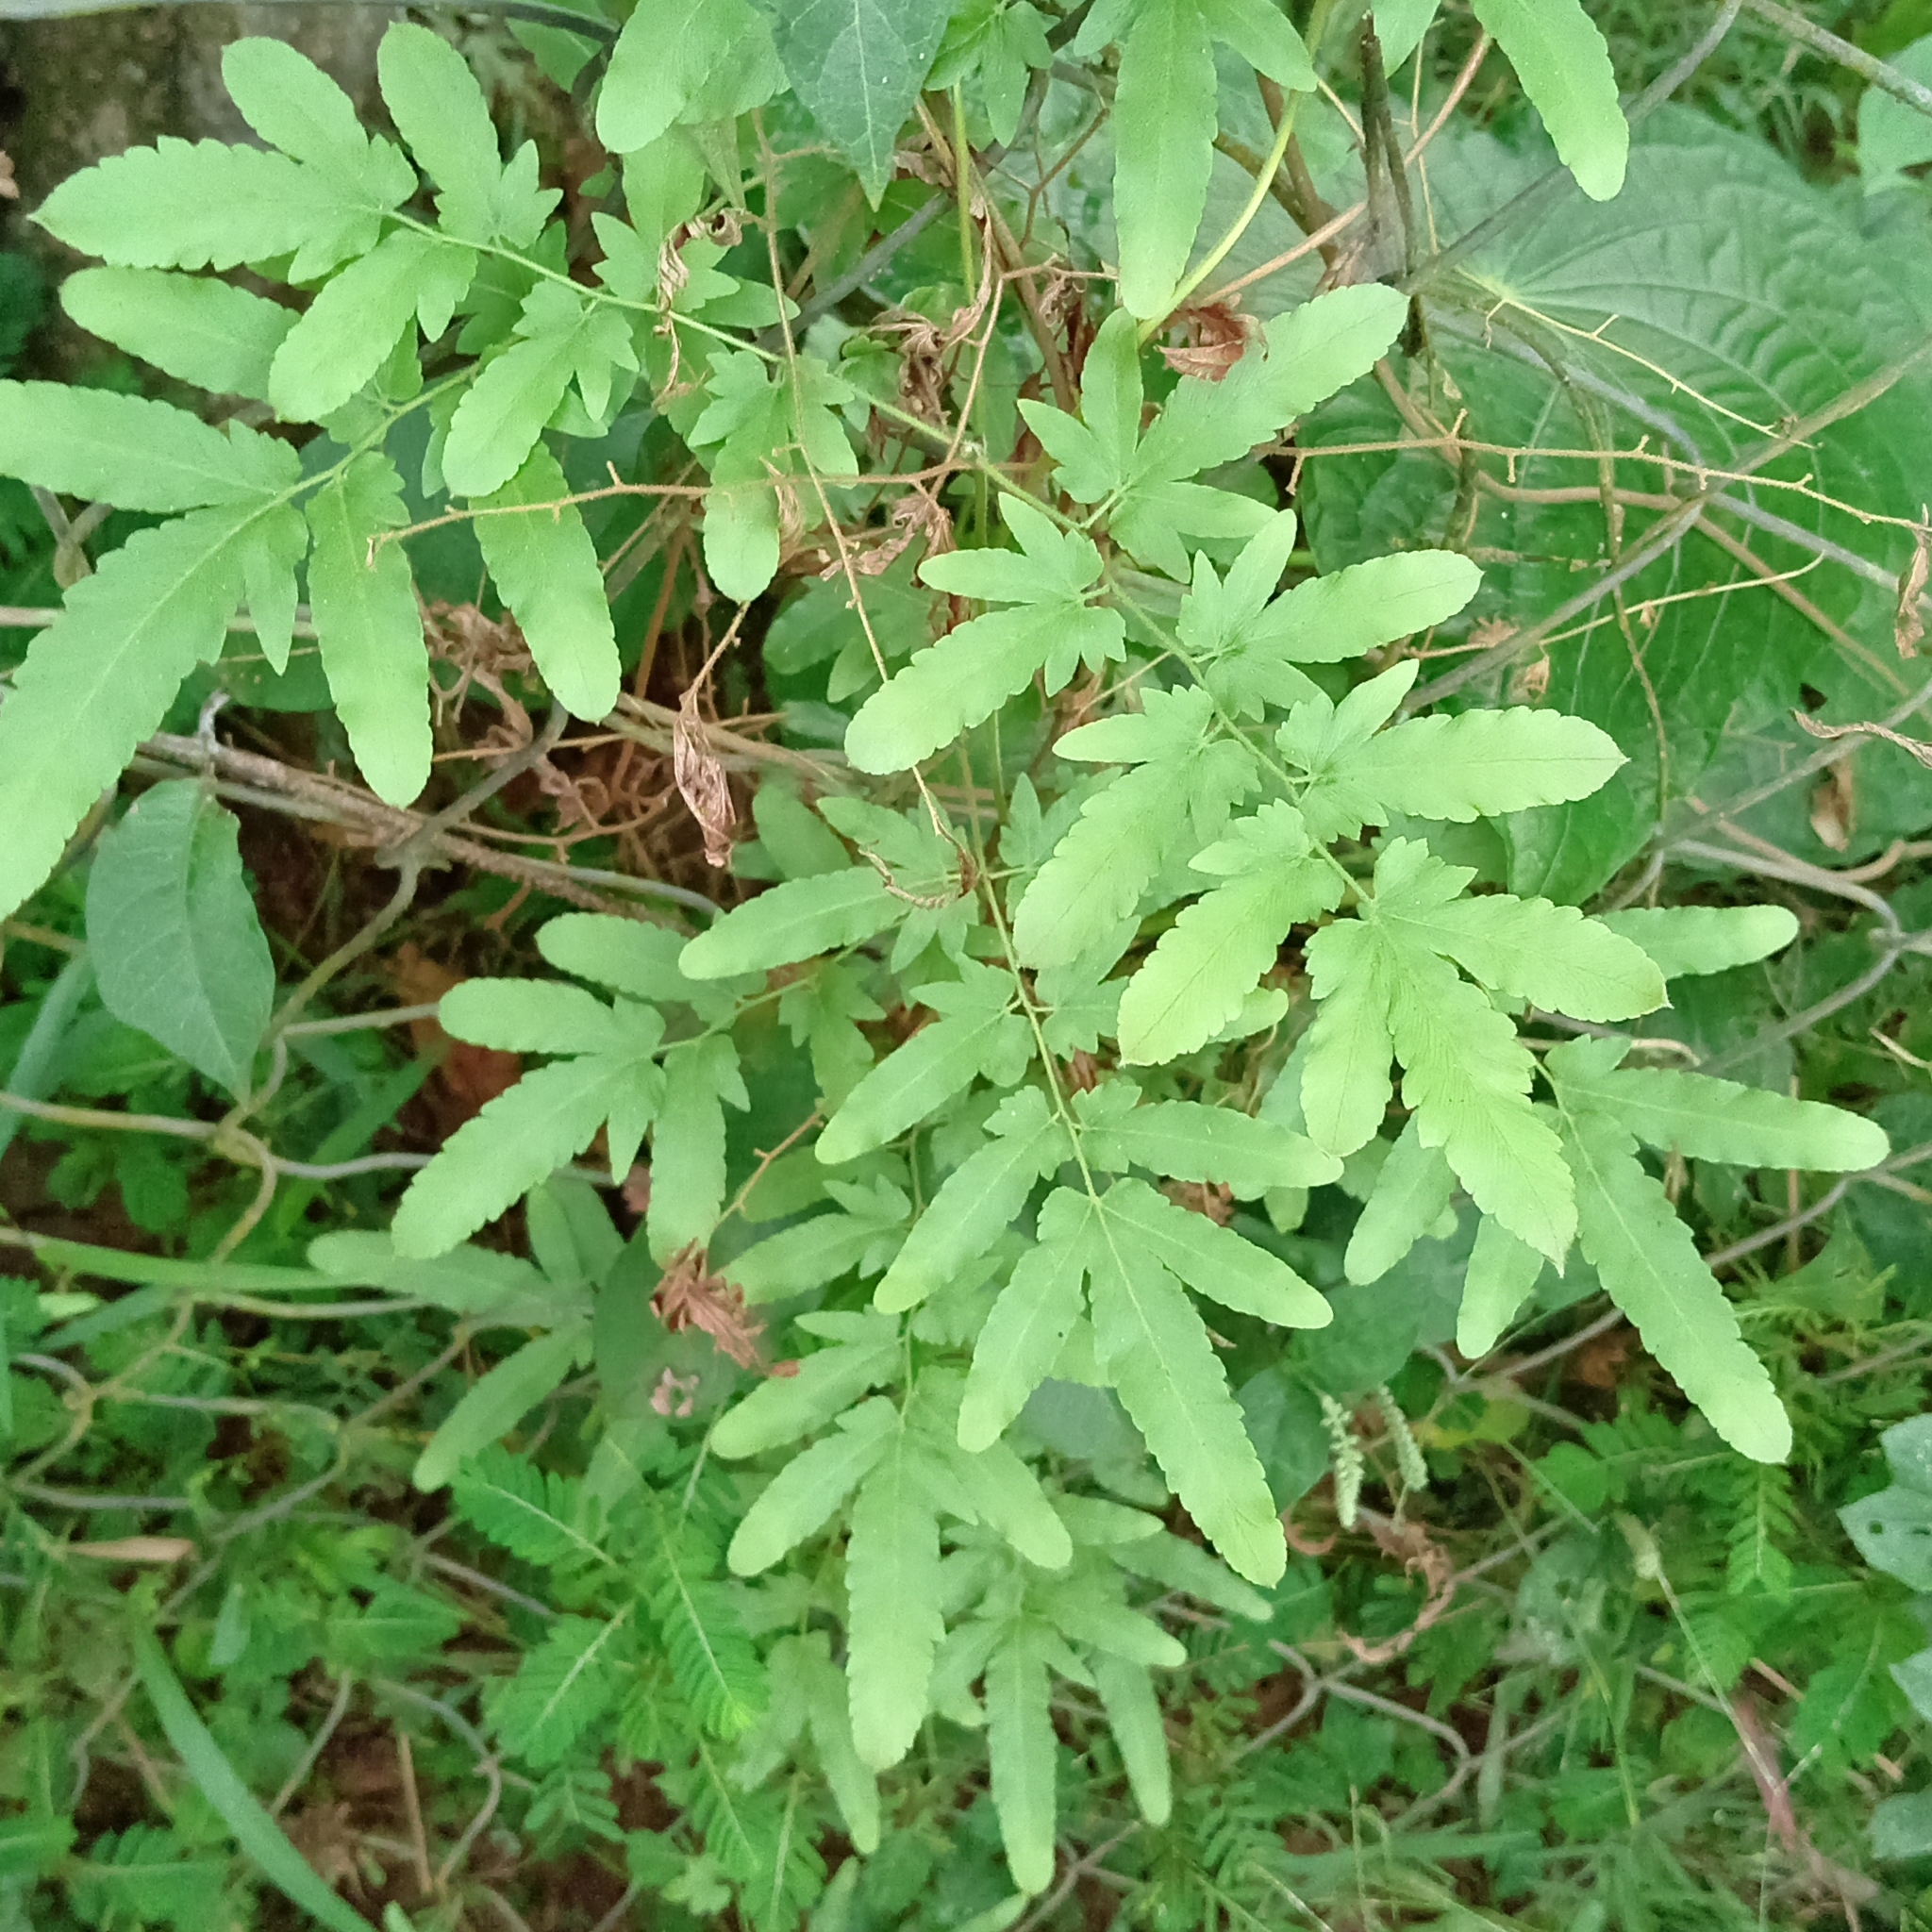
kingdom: Plantae
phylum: Tracheophyta
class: Polypodiopsida
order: Schizaeales
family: Lygodiaceae
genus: Lygodium
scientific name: Lygodium venustum
